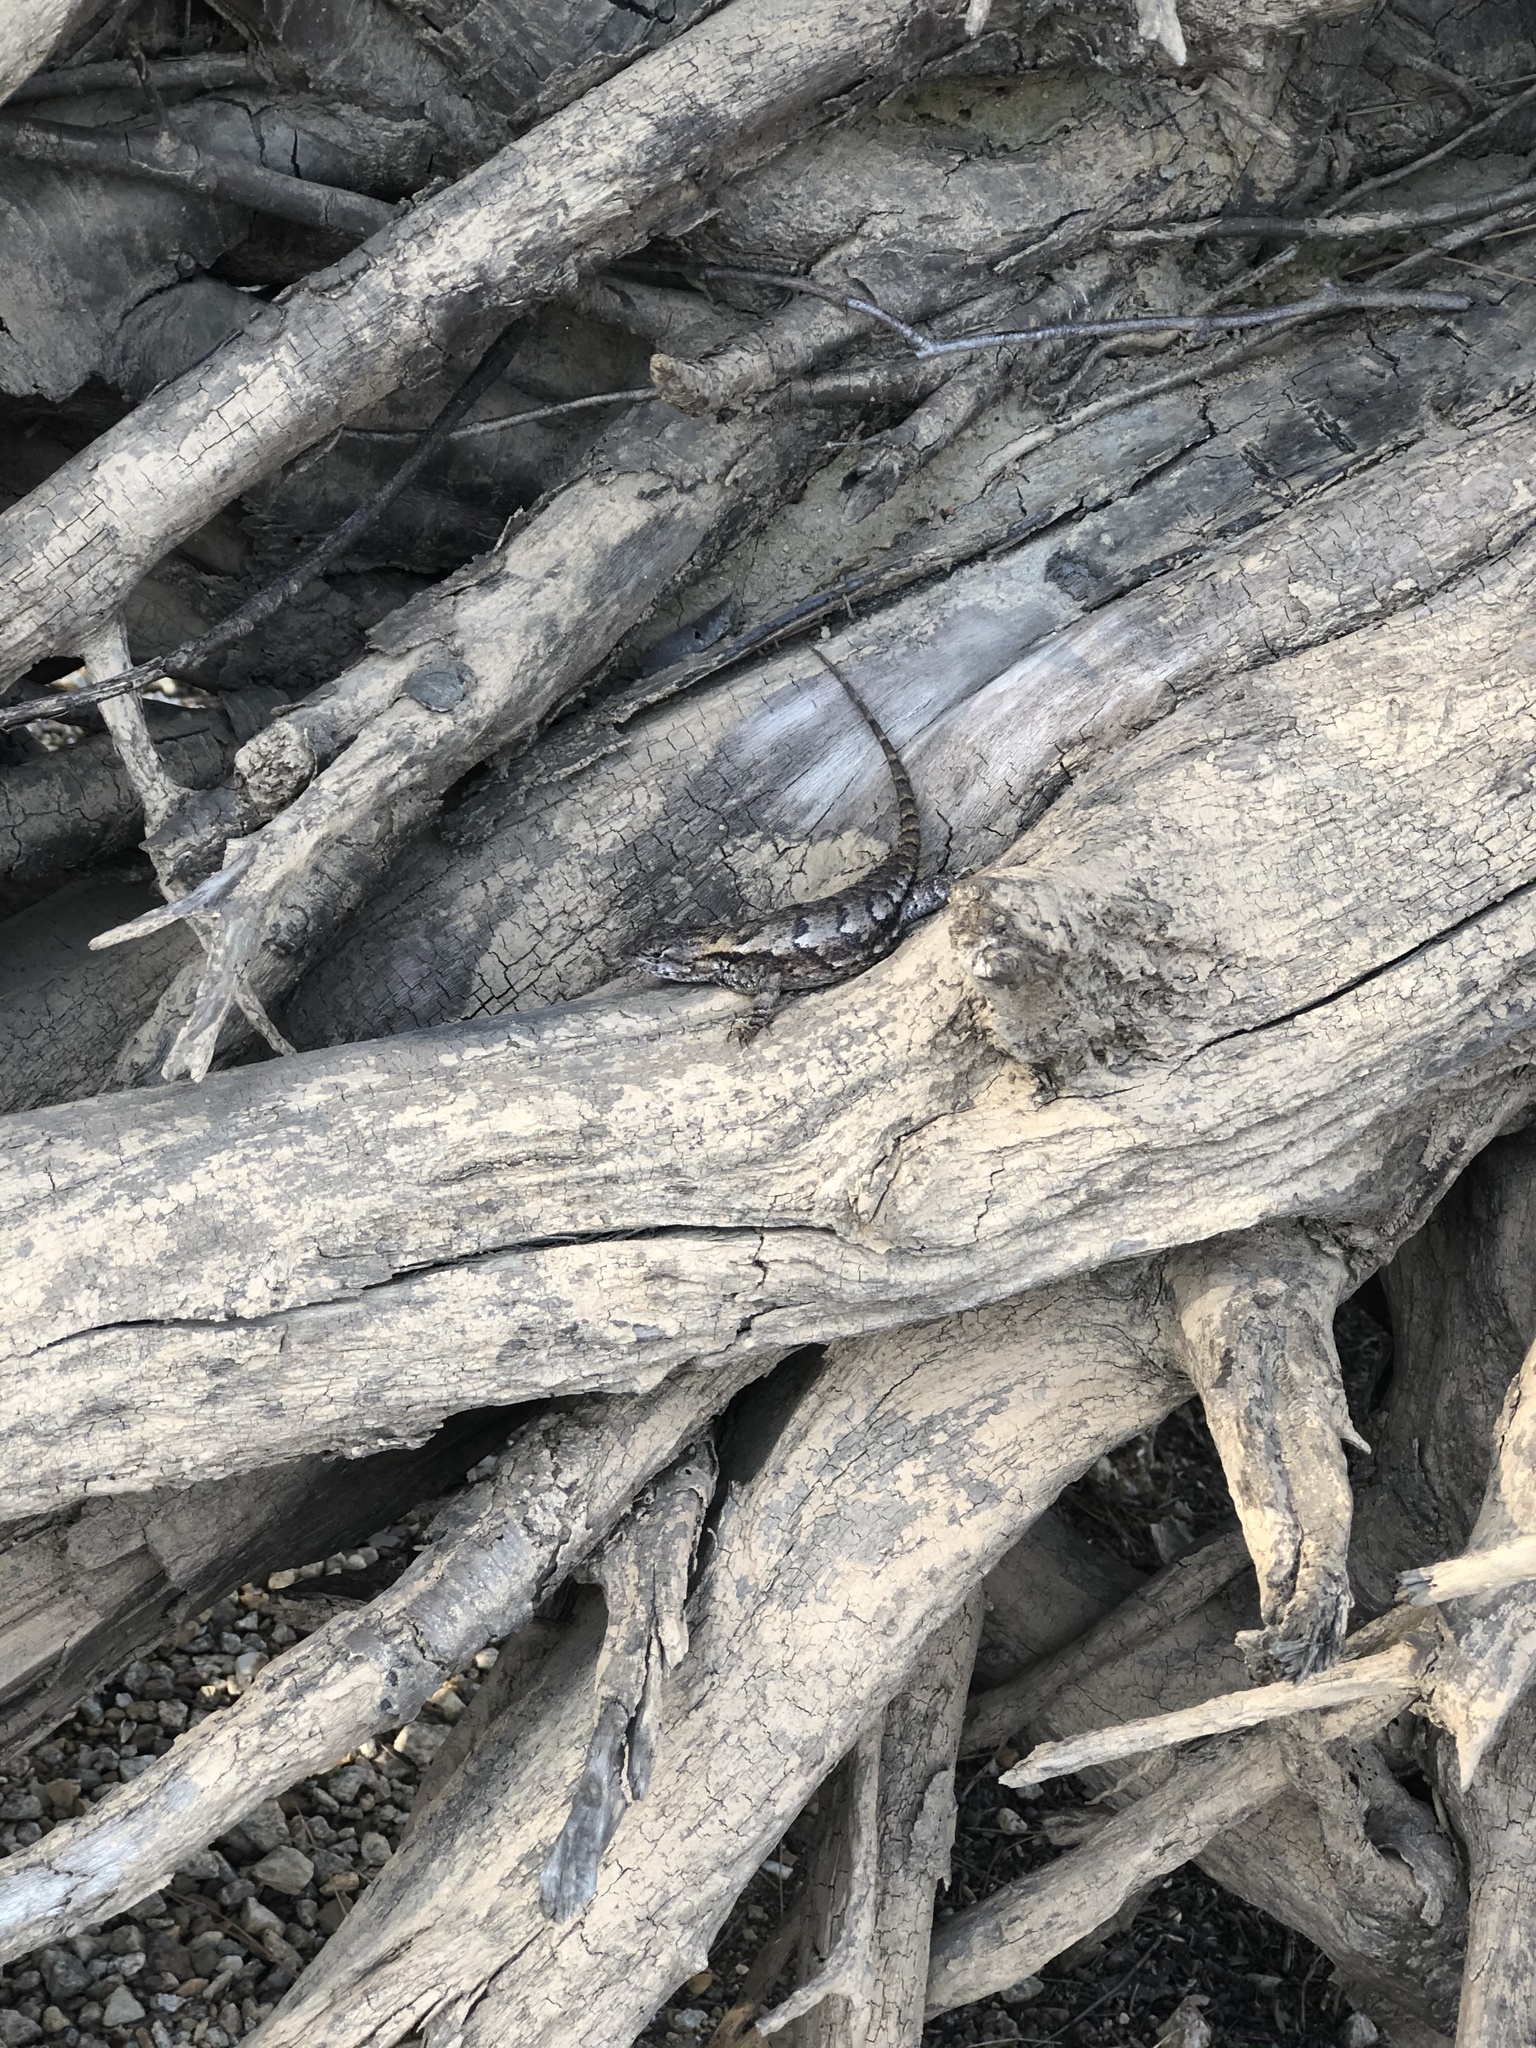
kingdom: Animalia
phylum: Chordata
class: Squamata
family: Phrynosomatidae
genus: Sceloporus
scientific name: Sceloporus undulatus
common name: Eastern fence lizard
